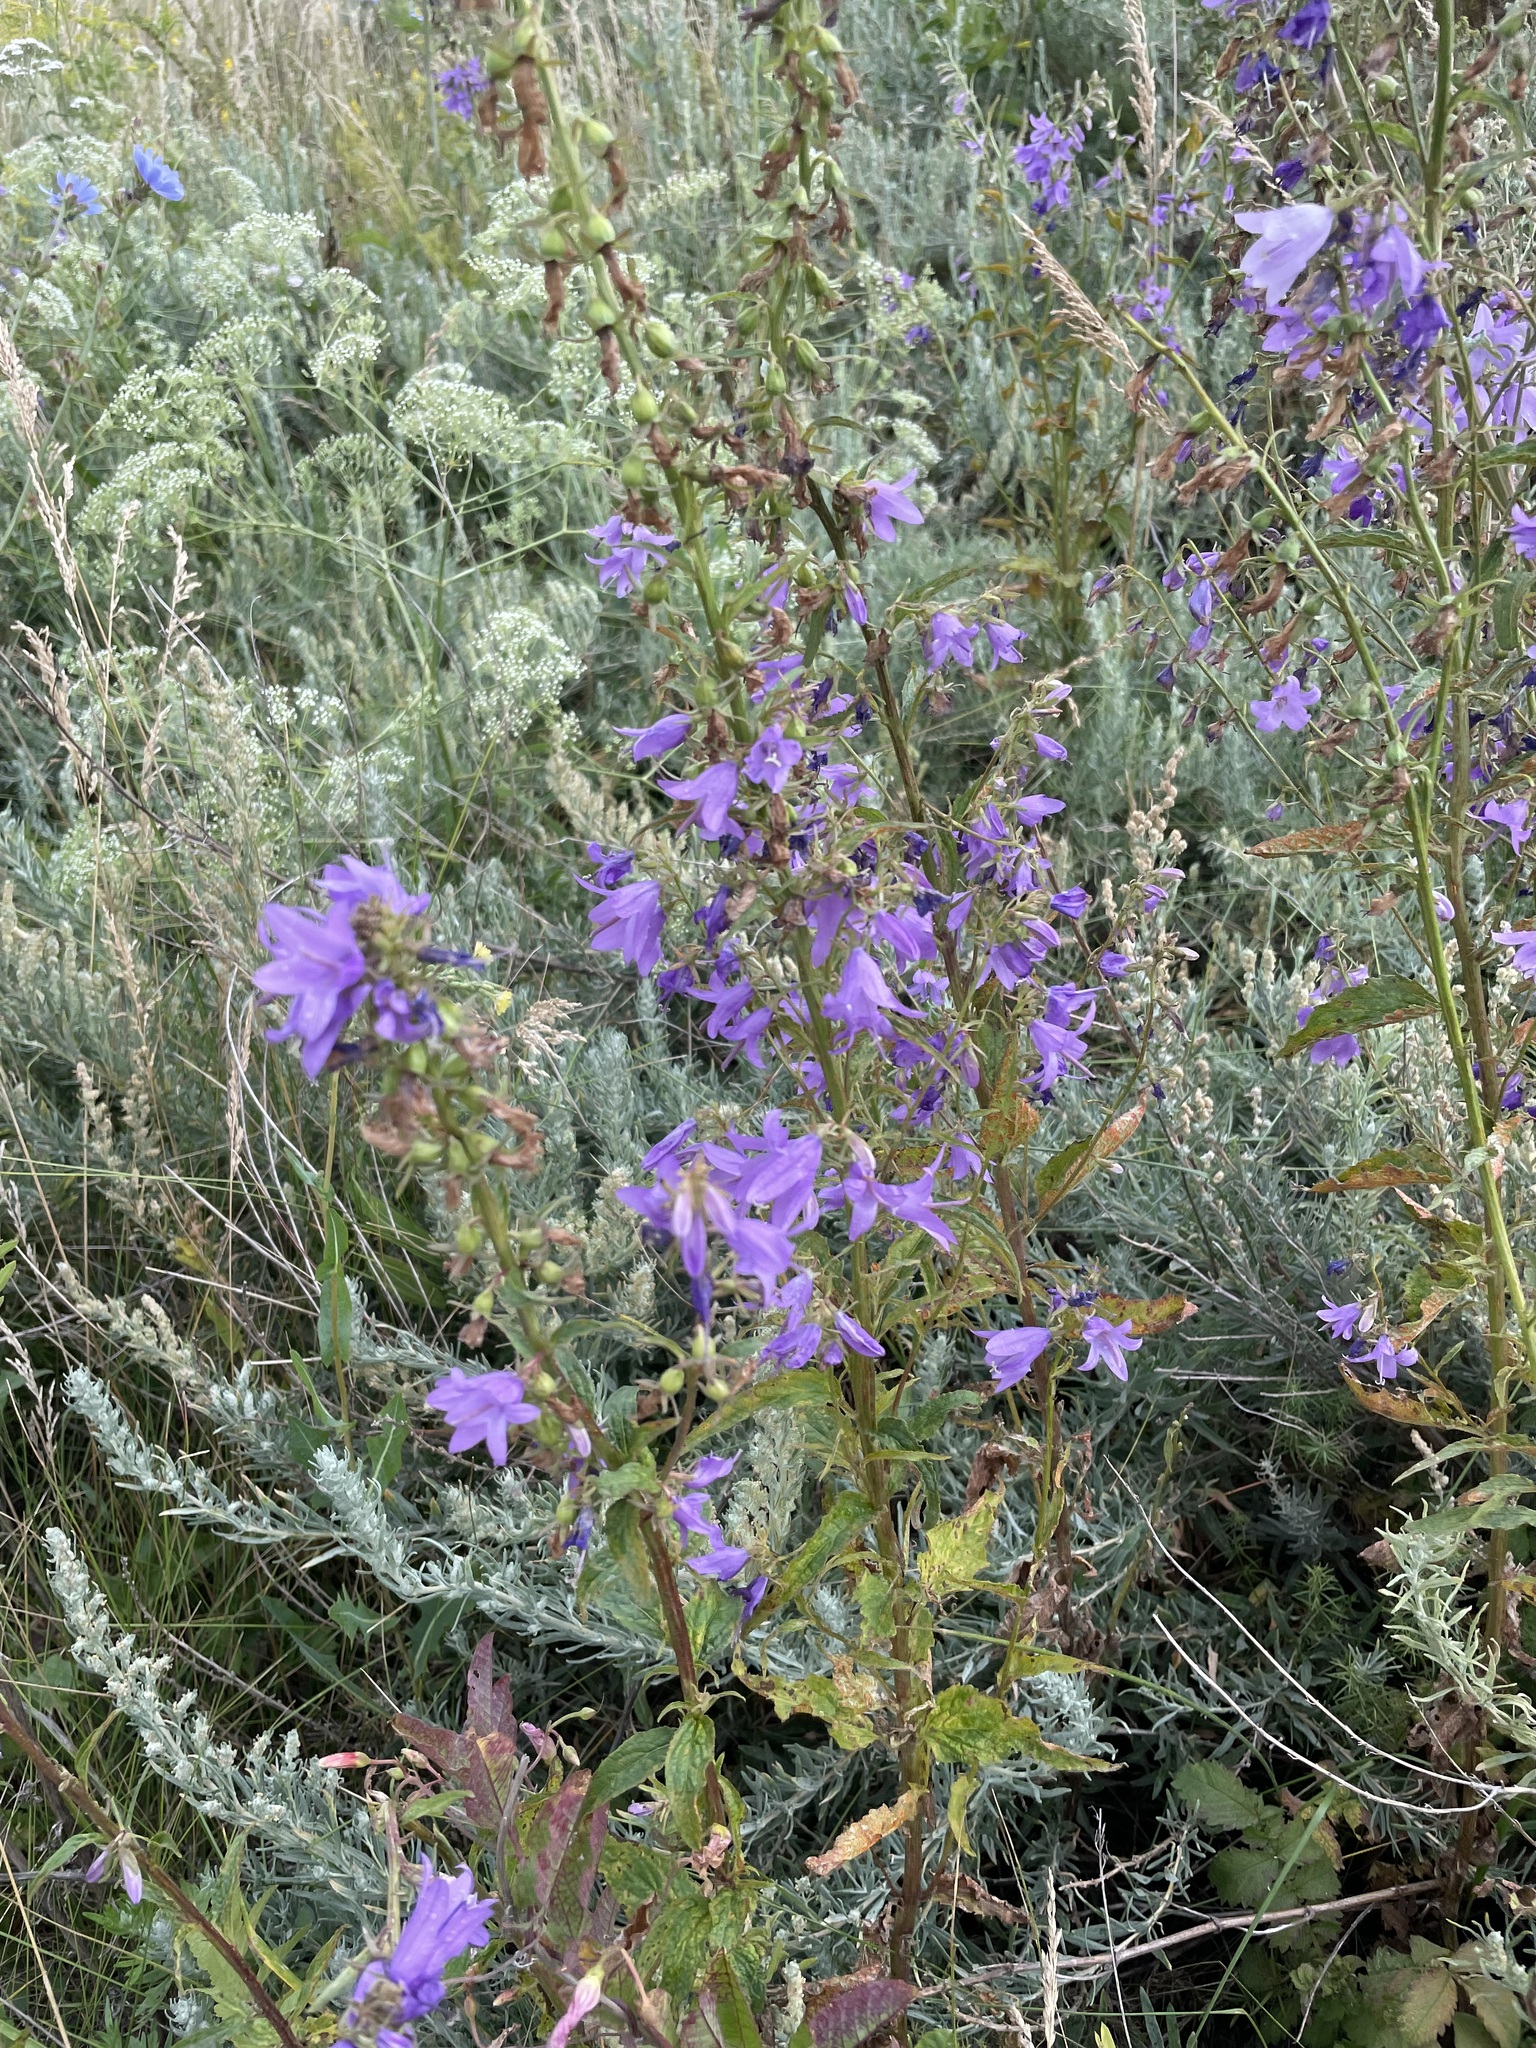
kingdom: Plantae
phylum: Tracheophyta
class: Magnoliopsida
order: Asterales
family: Campanulaceae
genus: Campanula
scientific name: Campanula rapunculoides
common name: Creeping bellflower
